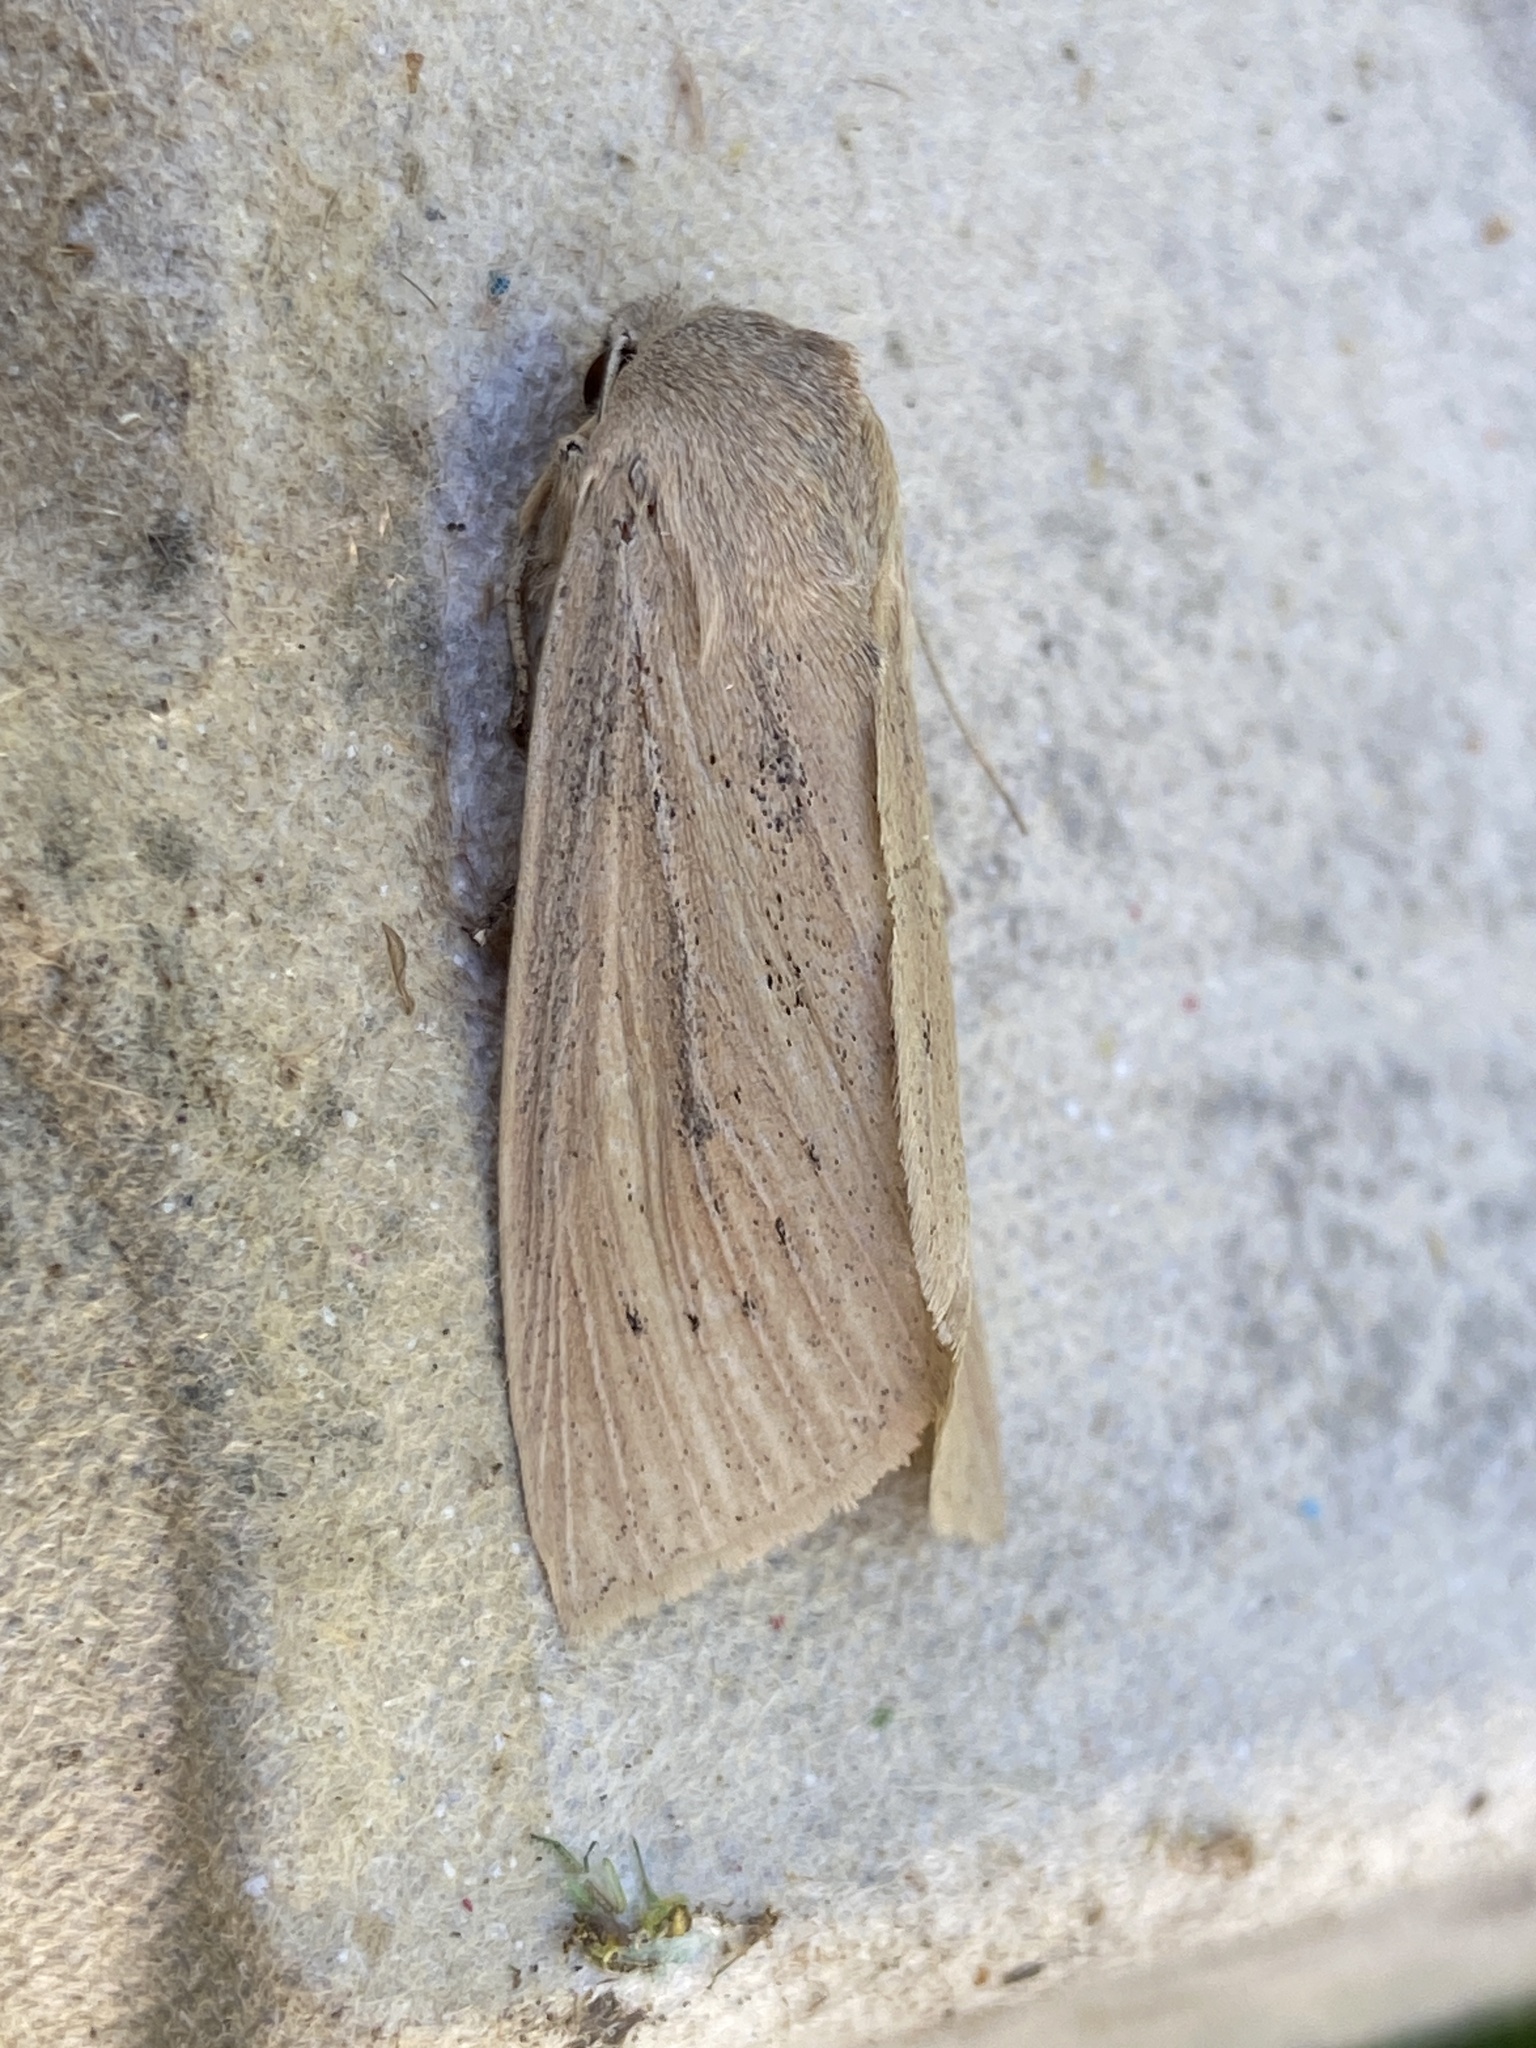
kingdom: Animalia
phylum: Arthropoda
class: Insecta
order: Lepidoptera
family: Noctuidae
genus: Rhizedra
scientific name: Rhizedra lutosa
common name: Large wainscot
